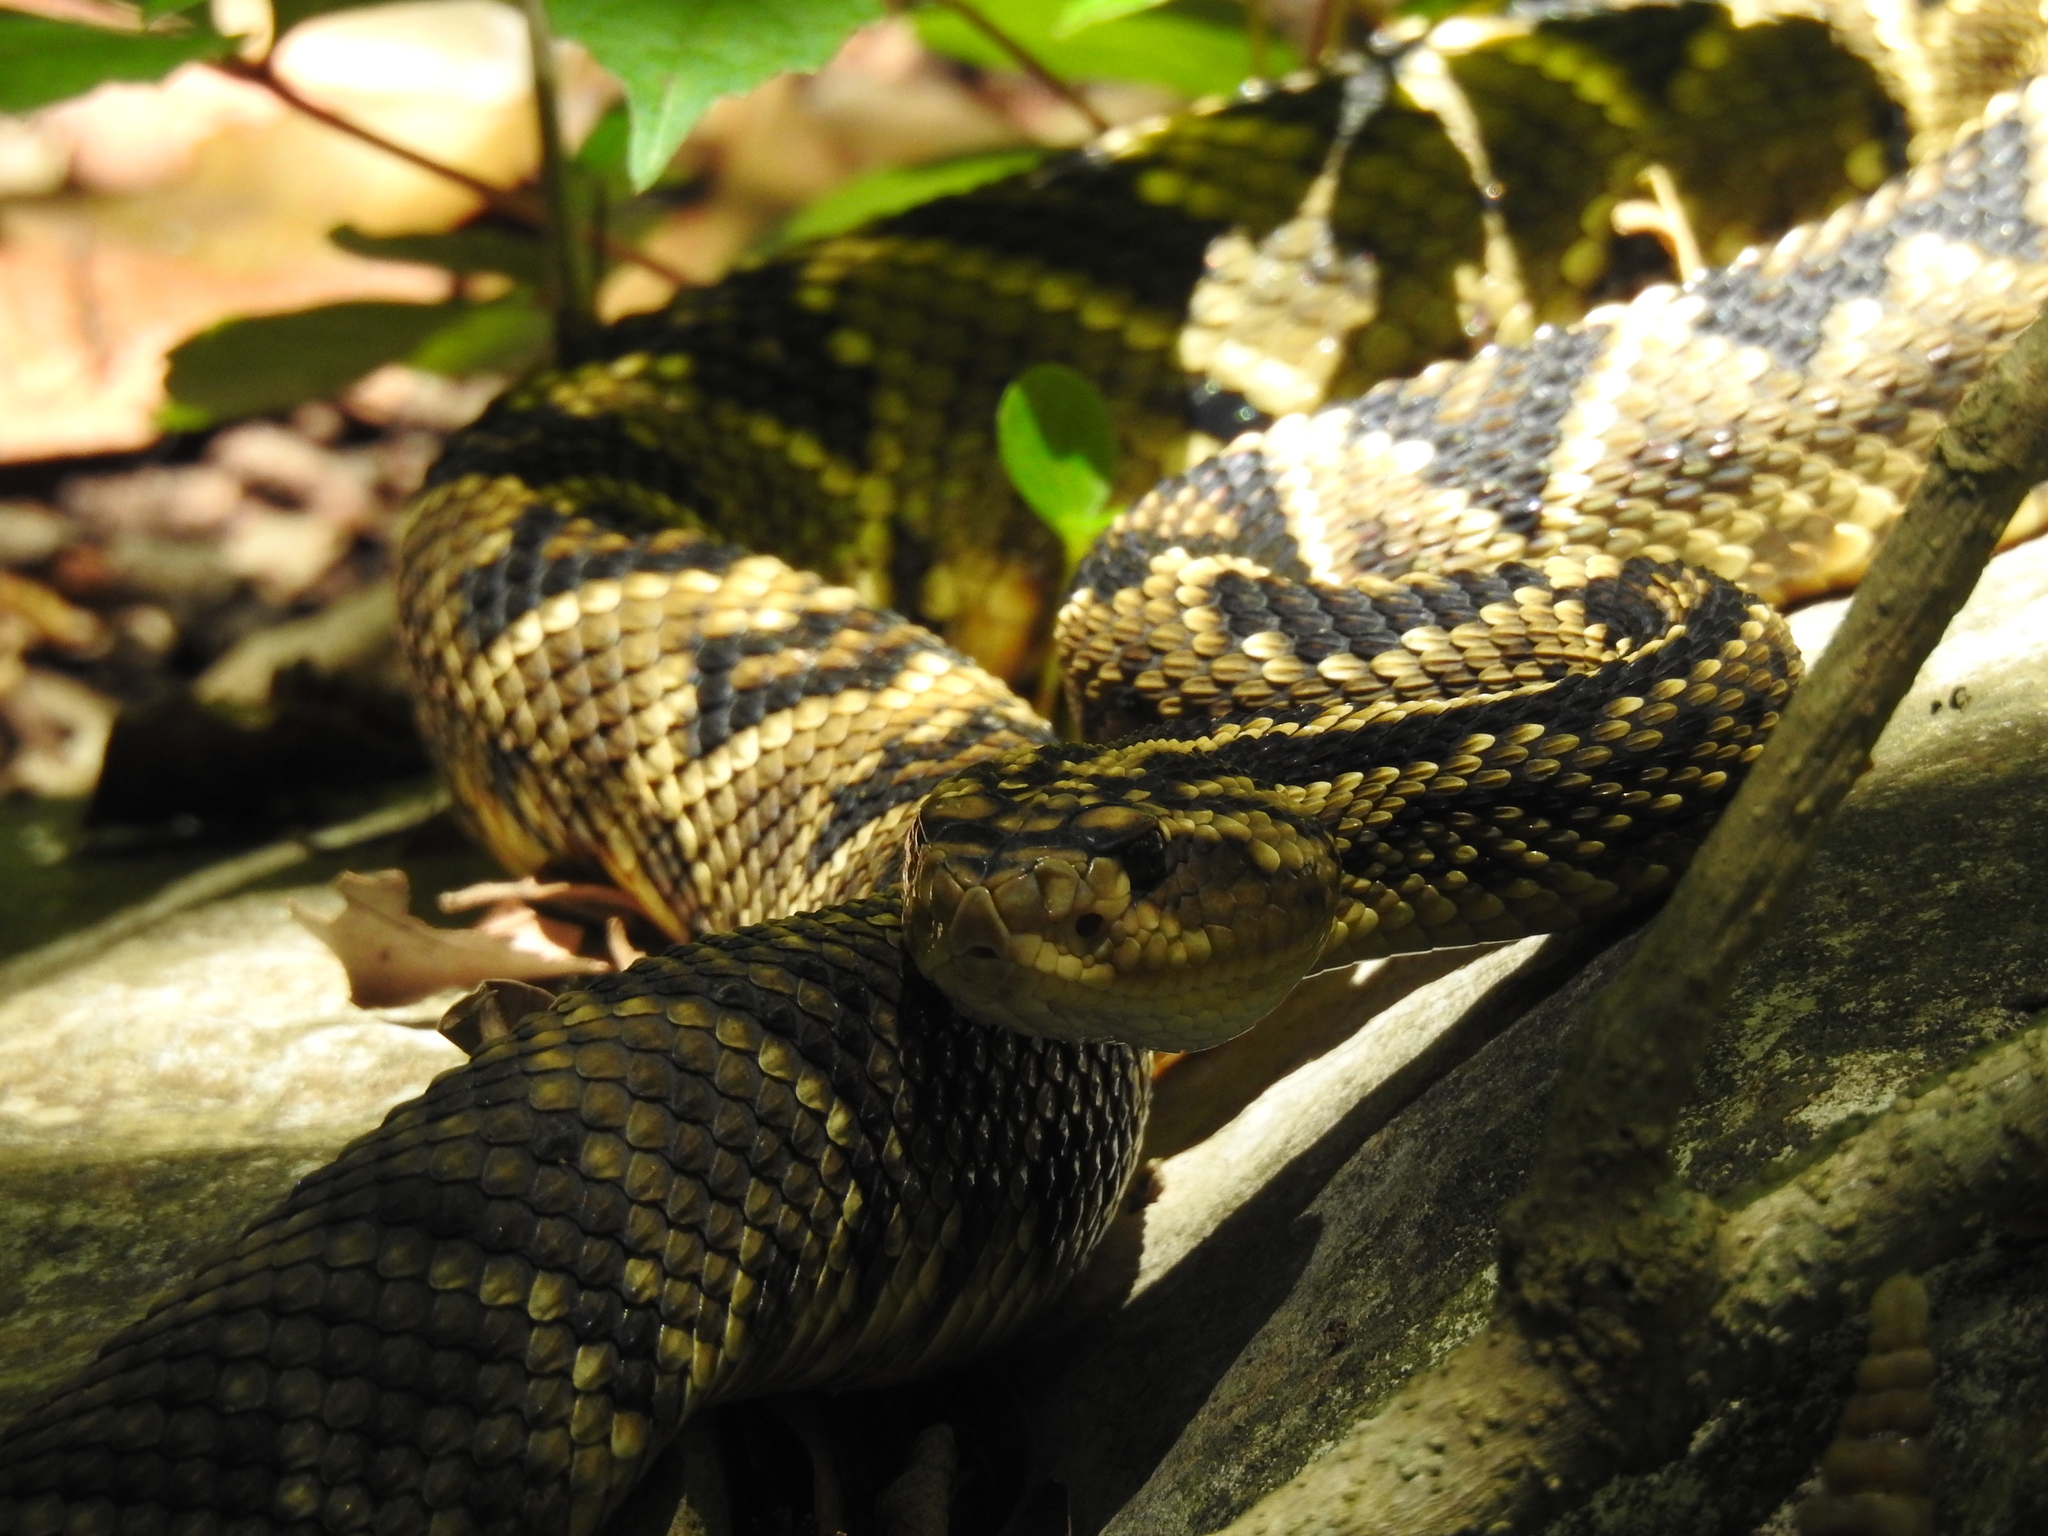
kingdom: Animalia
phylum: Chordata
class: Squamata
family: Viperidae
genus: Crotalus
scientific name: Crotalus totonacus
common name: Totonacan rattlesnake
